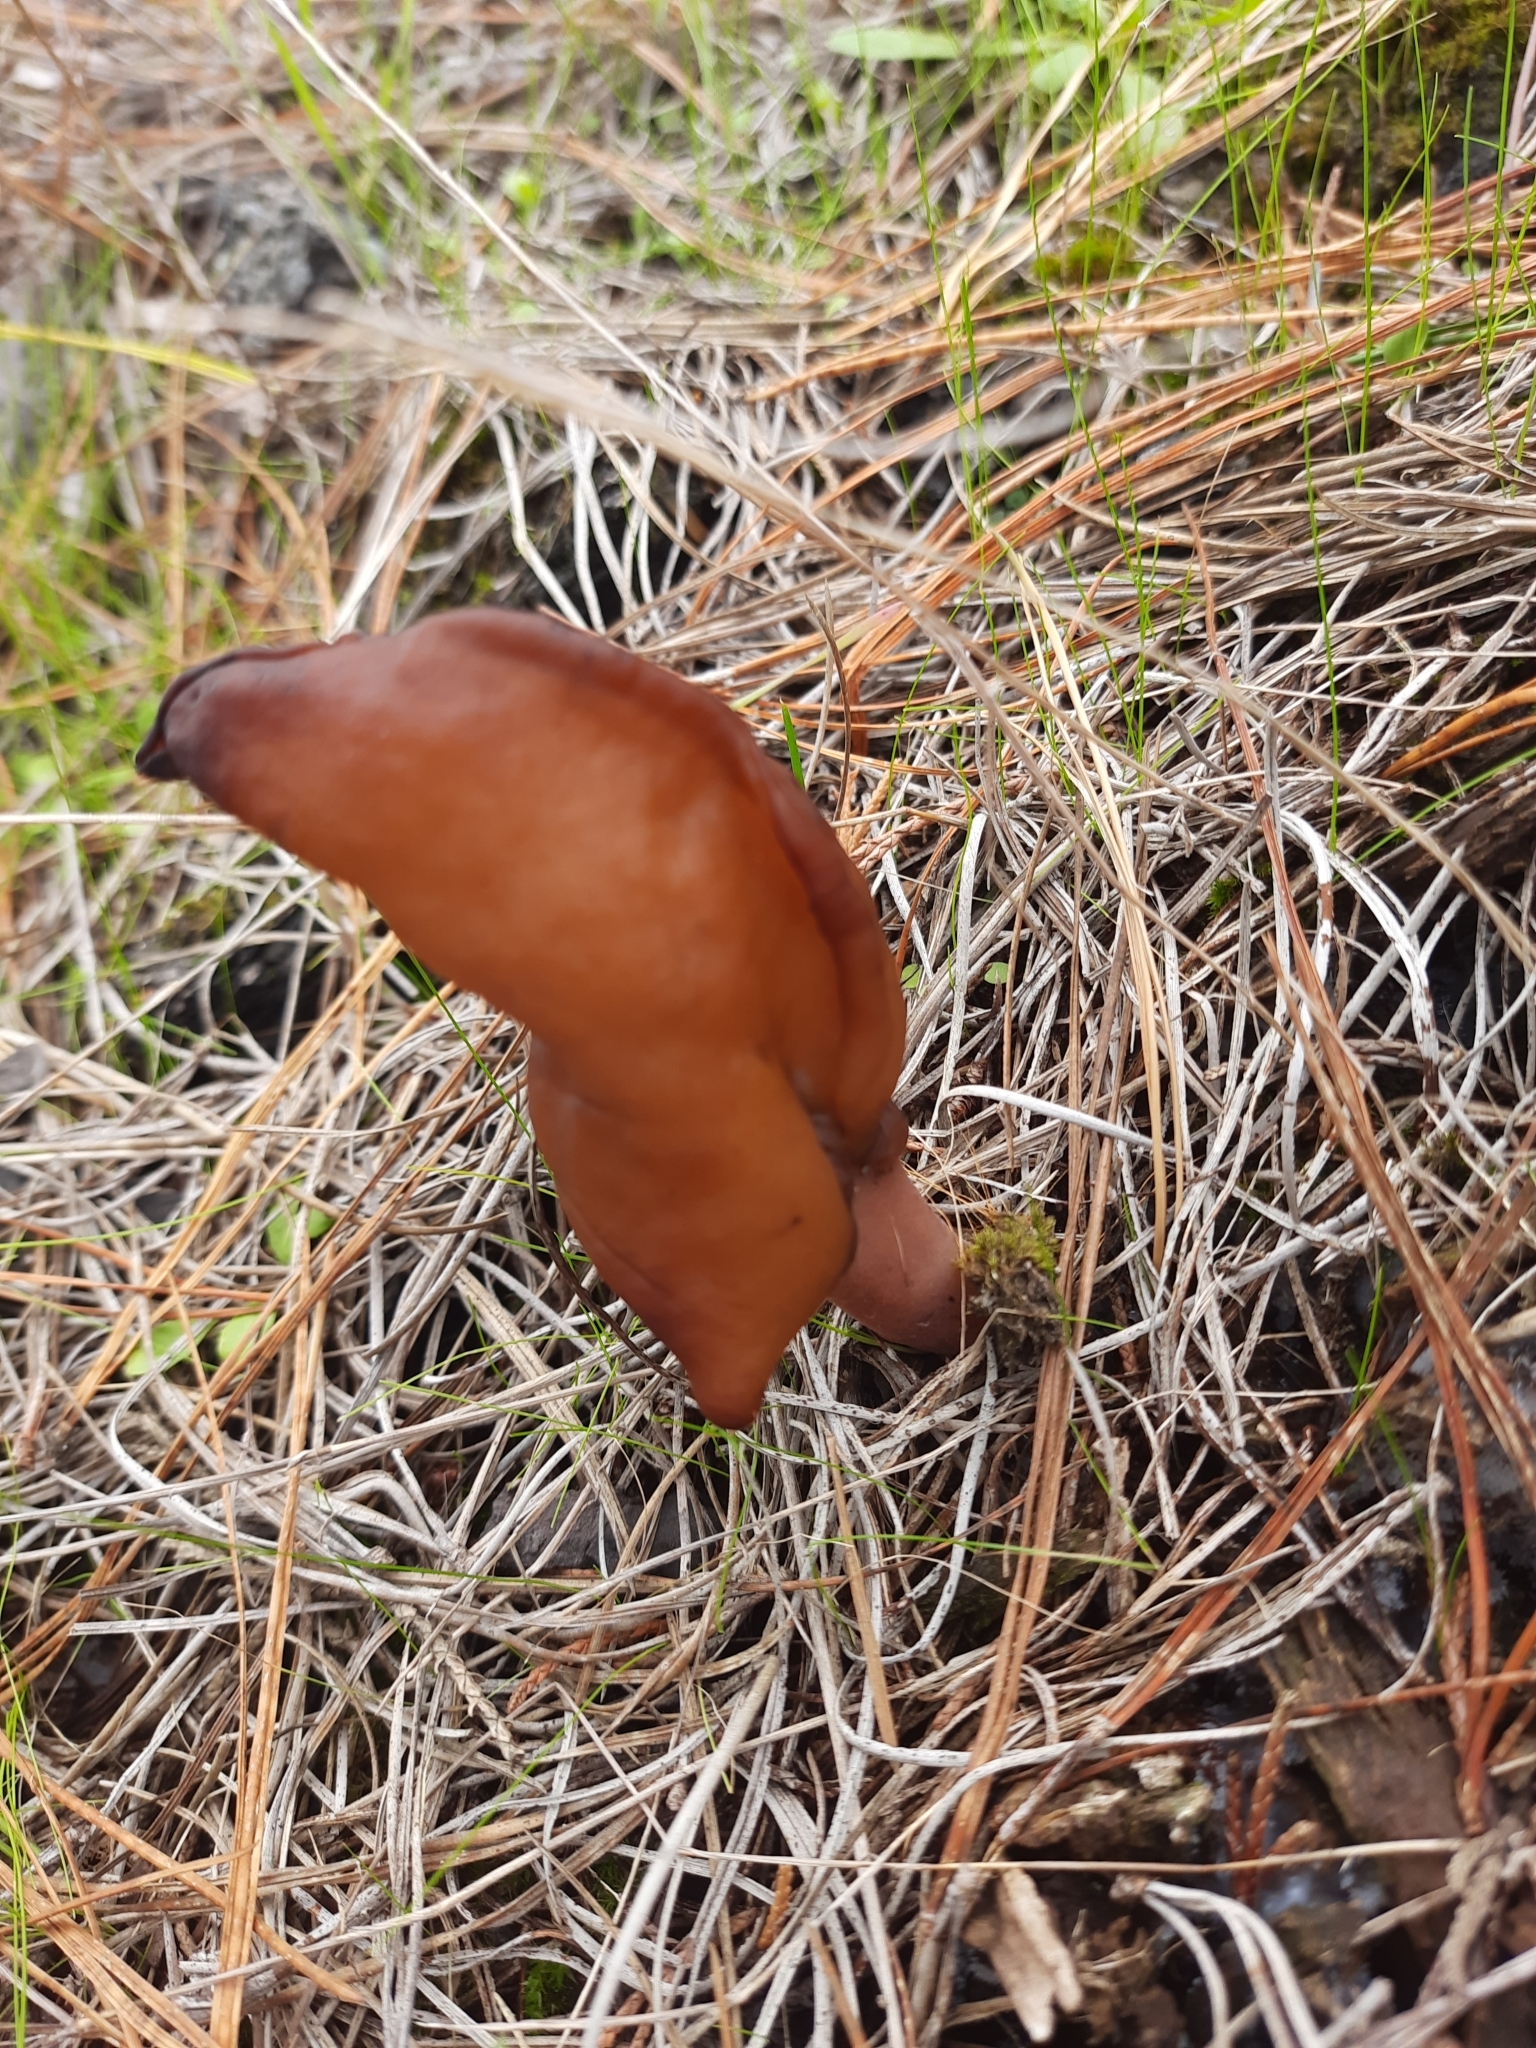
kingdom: Fungi
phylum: Ascomycota
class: Pezizomycetes
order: Pezizales
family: Discinaceae
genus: Gyromitra
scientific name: Gyromitra infula
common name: Pouched false morel
